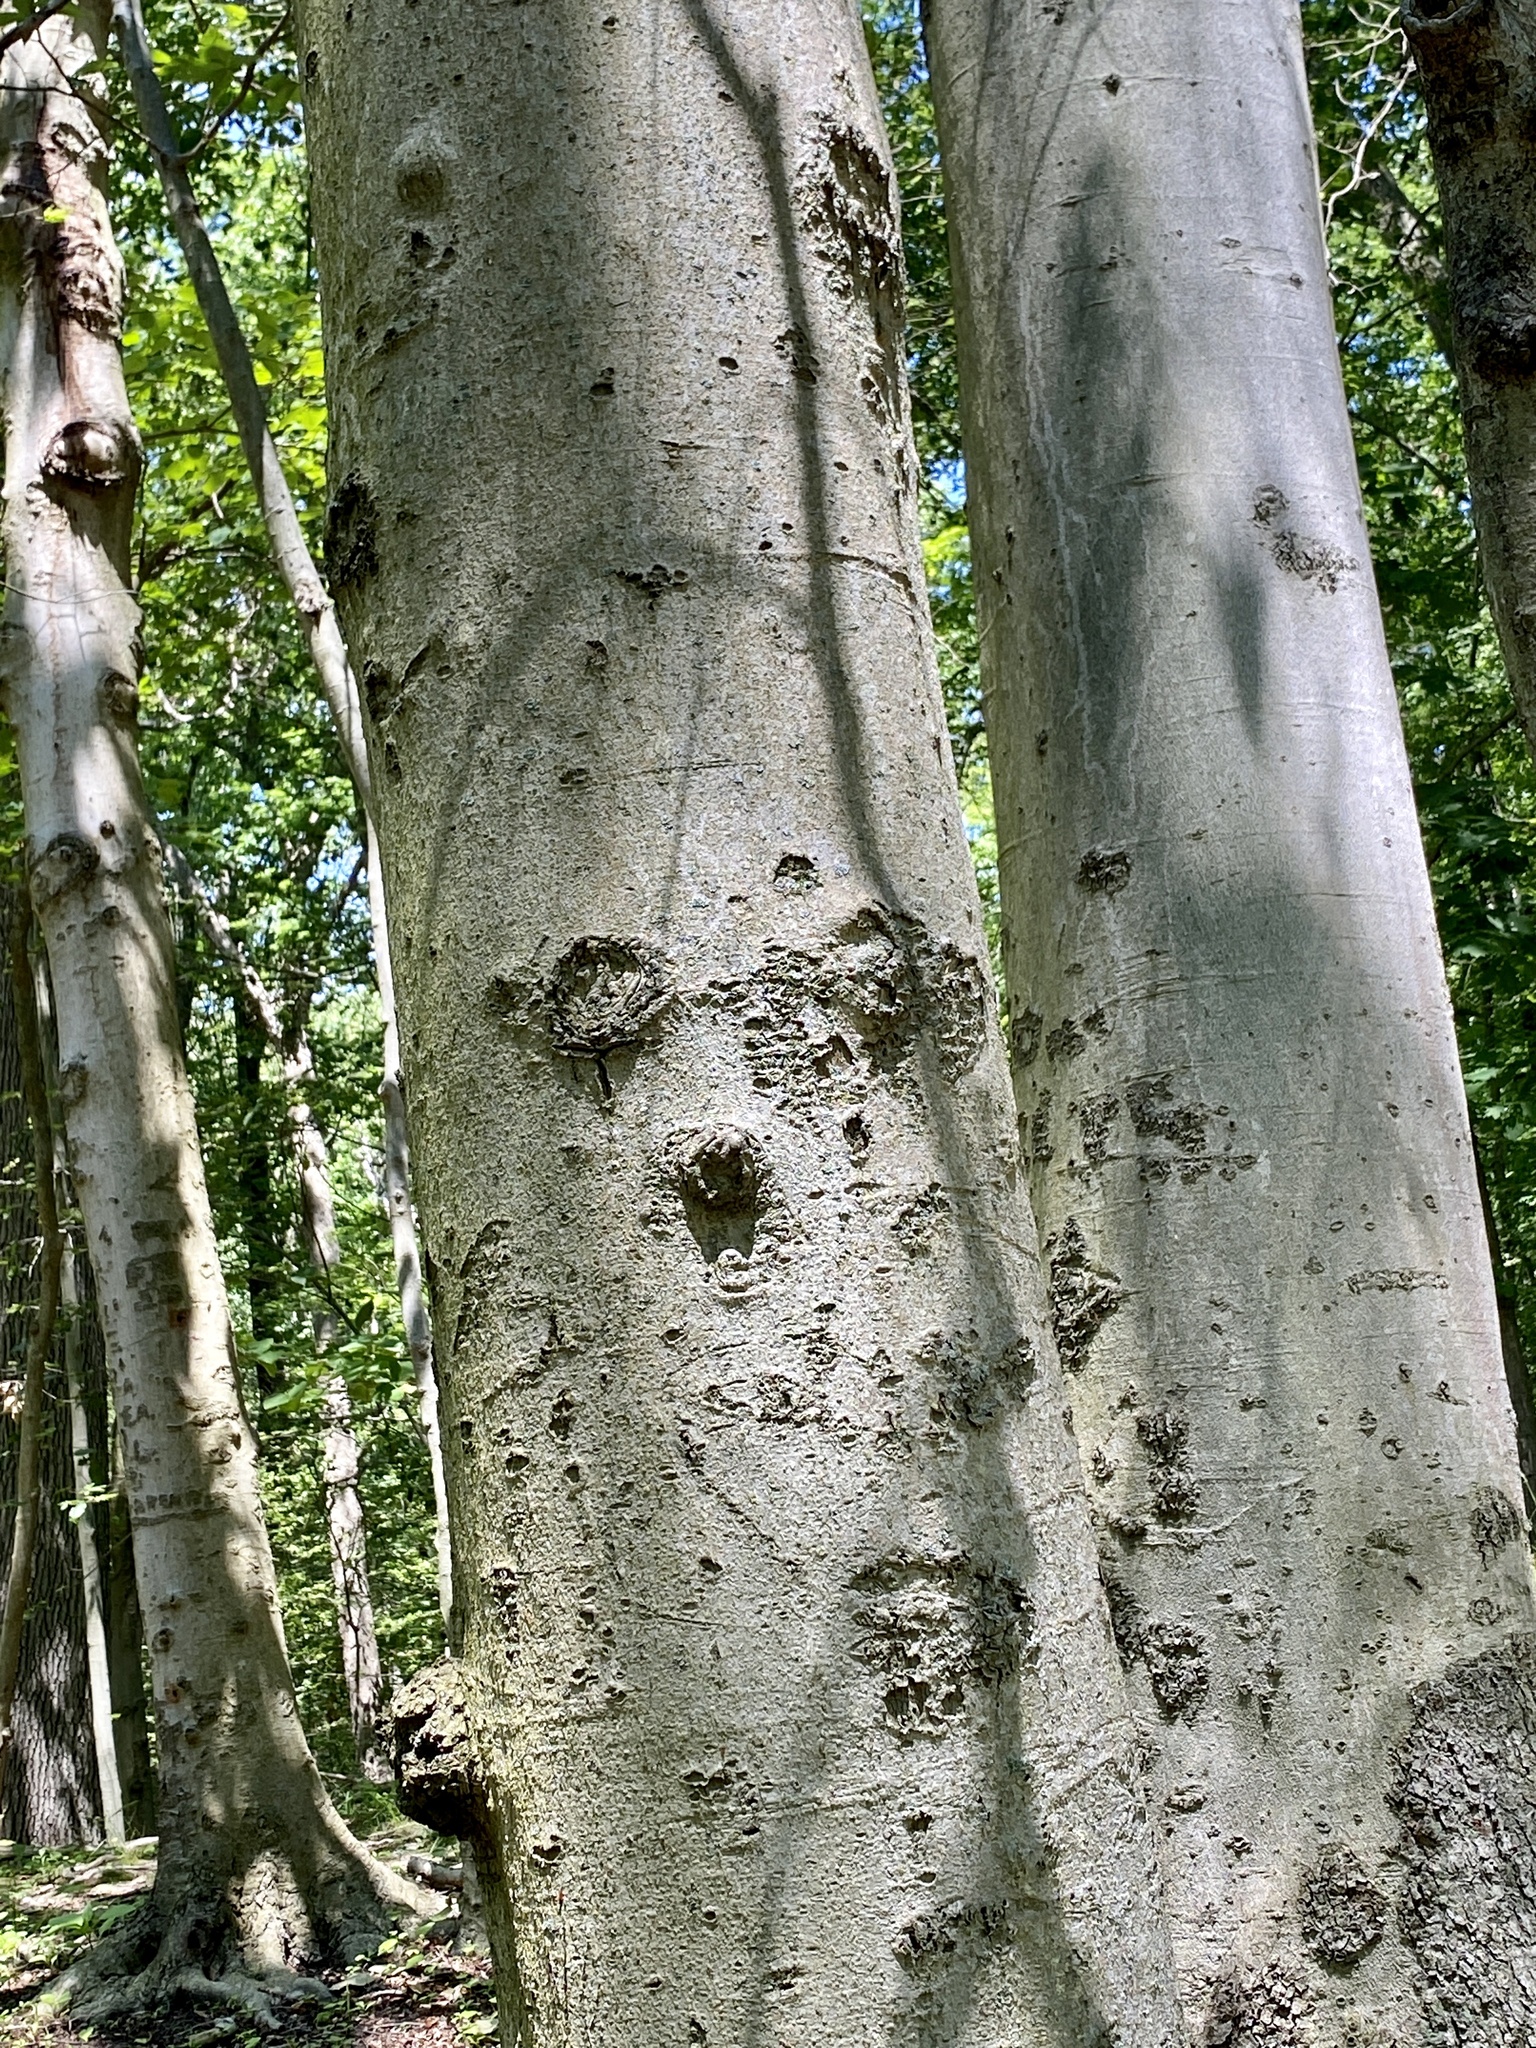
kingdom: Plantae
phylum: Tracheophyta
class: Magnoliopsida
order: Fagales
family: Fagaceae
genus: Fagus
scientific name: Fagus grandifolia
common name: American beech
